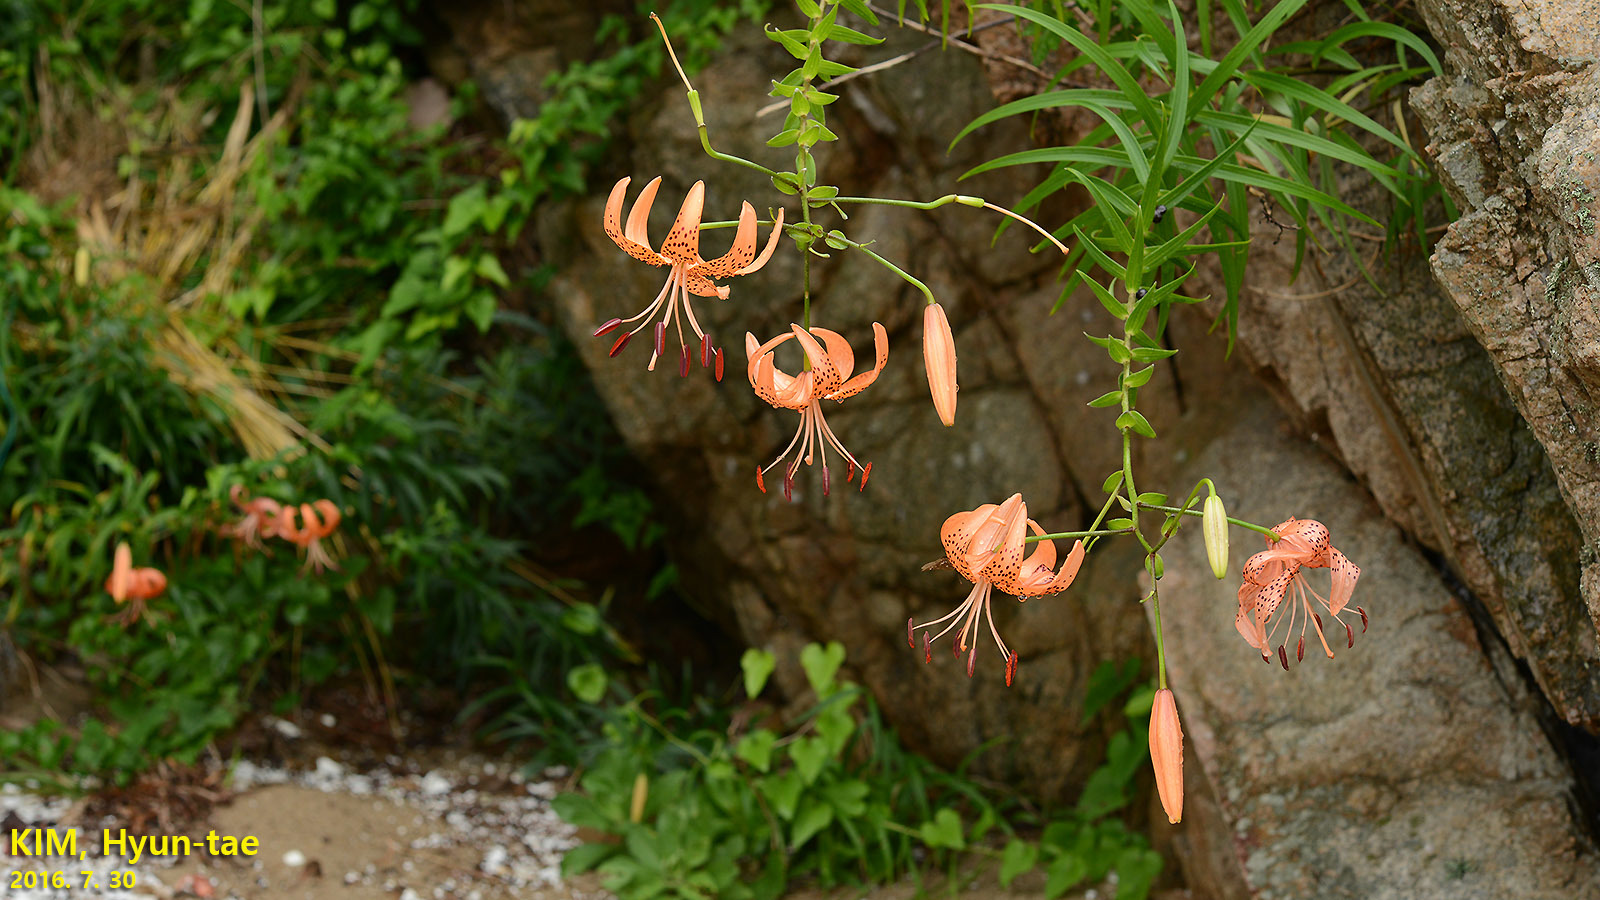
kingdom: Plantae
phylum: Tracheophyta
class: Liliopsida
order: Liliales
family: Liliaceae
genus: Lilium
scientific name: Lilium lancifolium
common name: Tiger lily
